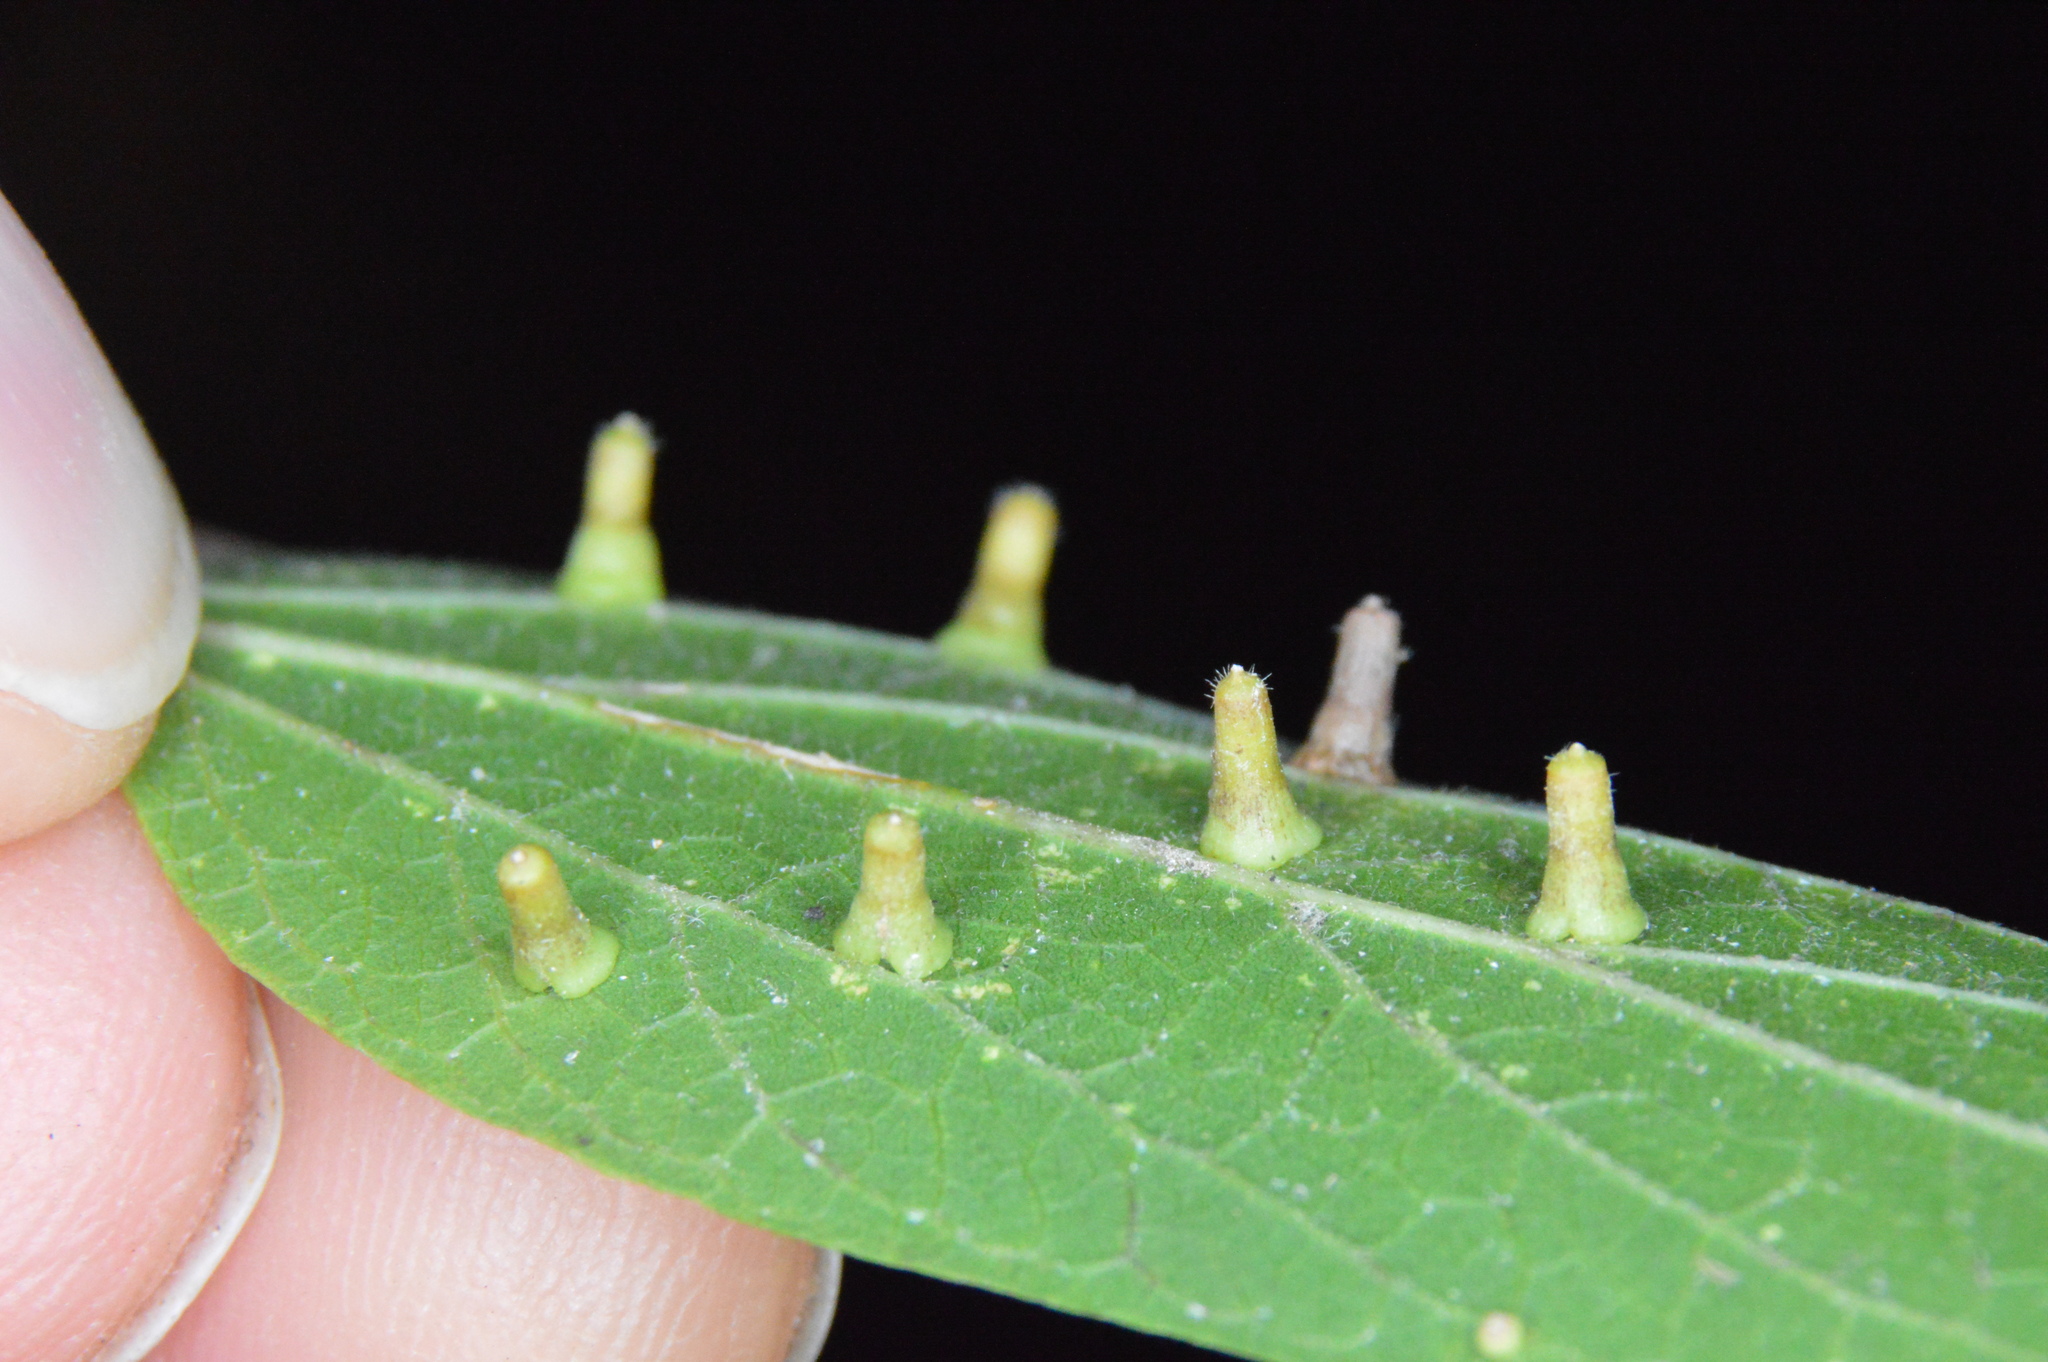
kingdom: Animalia
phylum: Arthropoda
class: Insecta
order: Diptera
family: Cecidomyiidae
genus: Celticecis
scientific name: Celticecis aciculata
